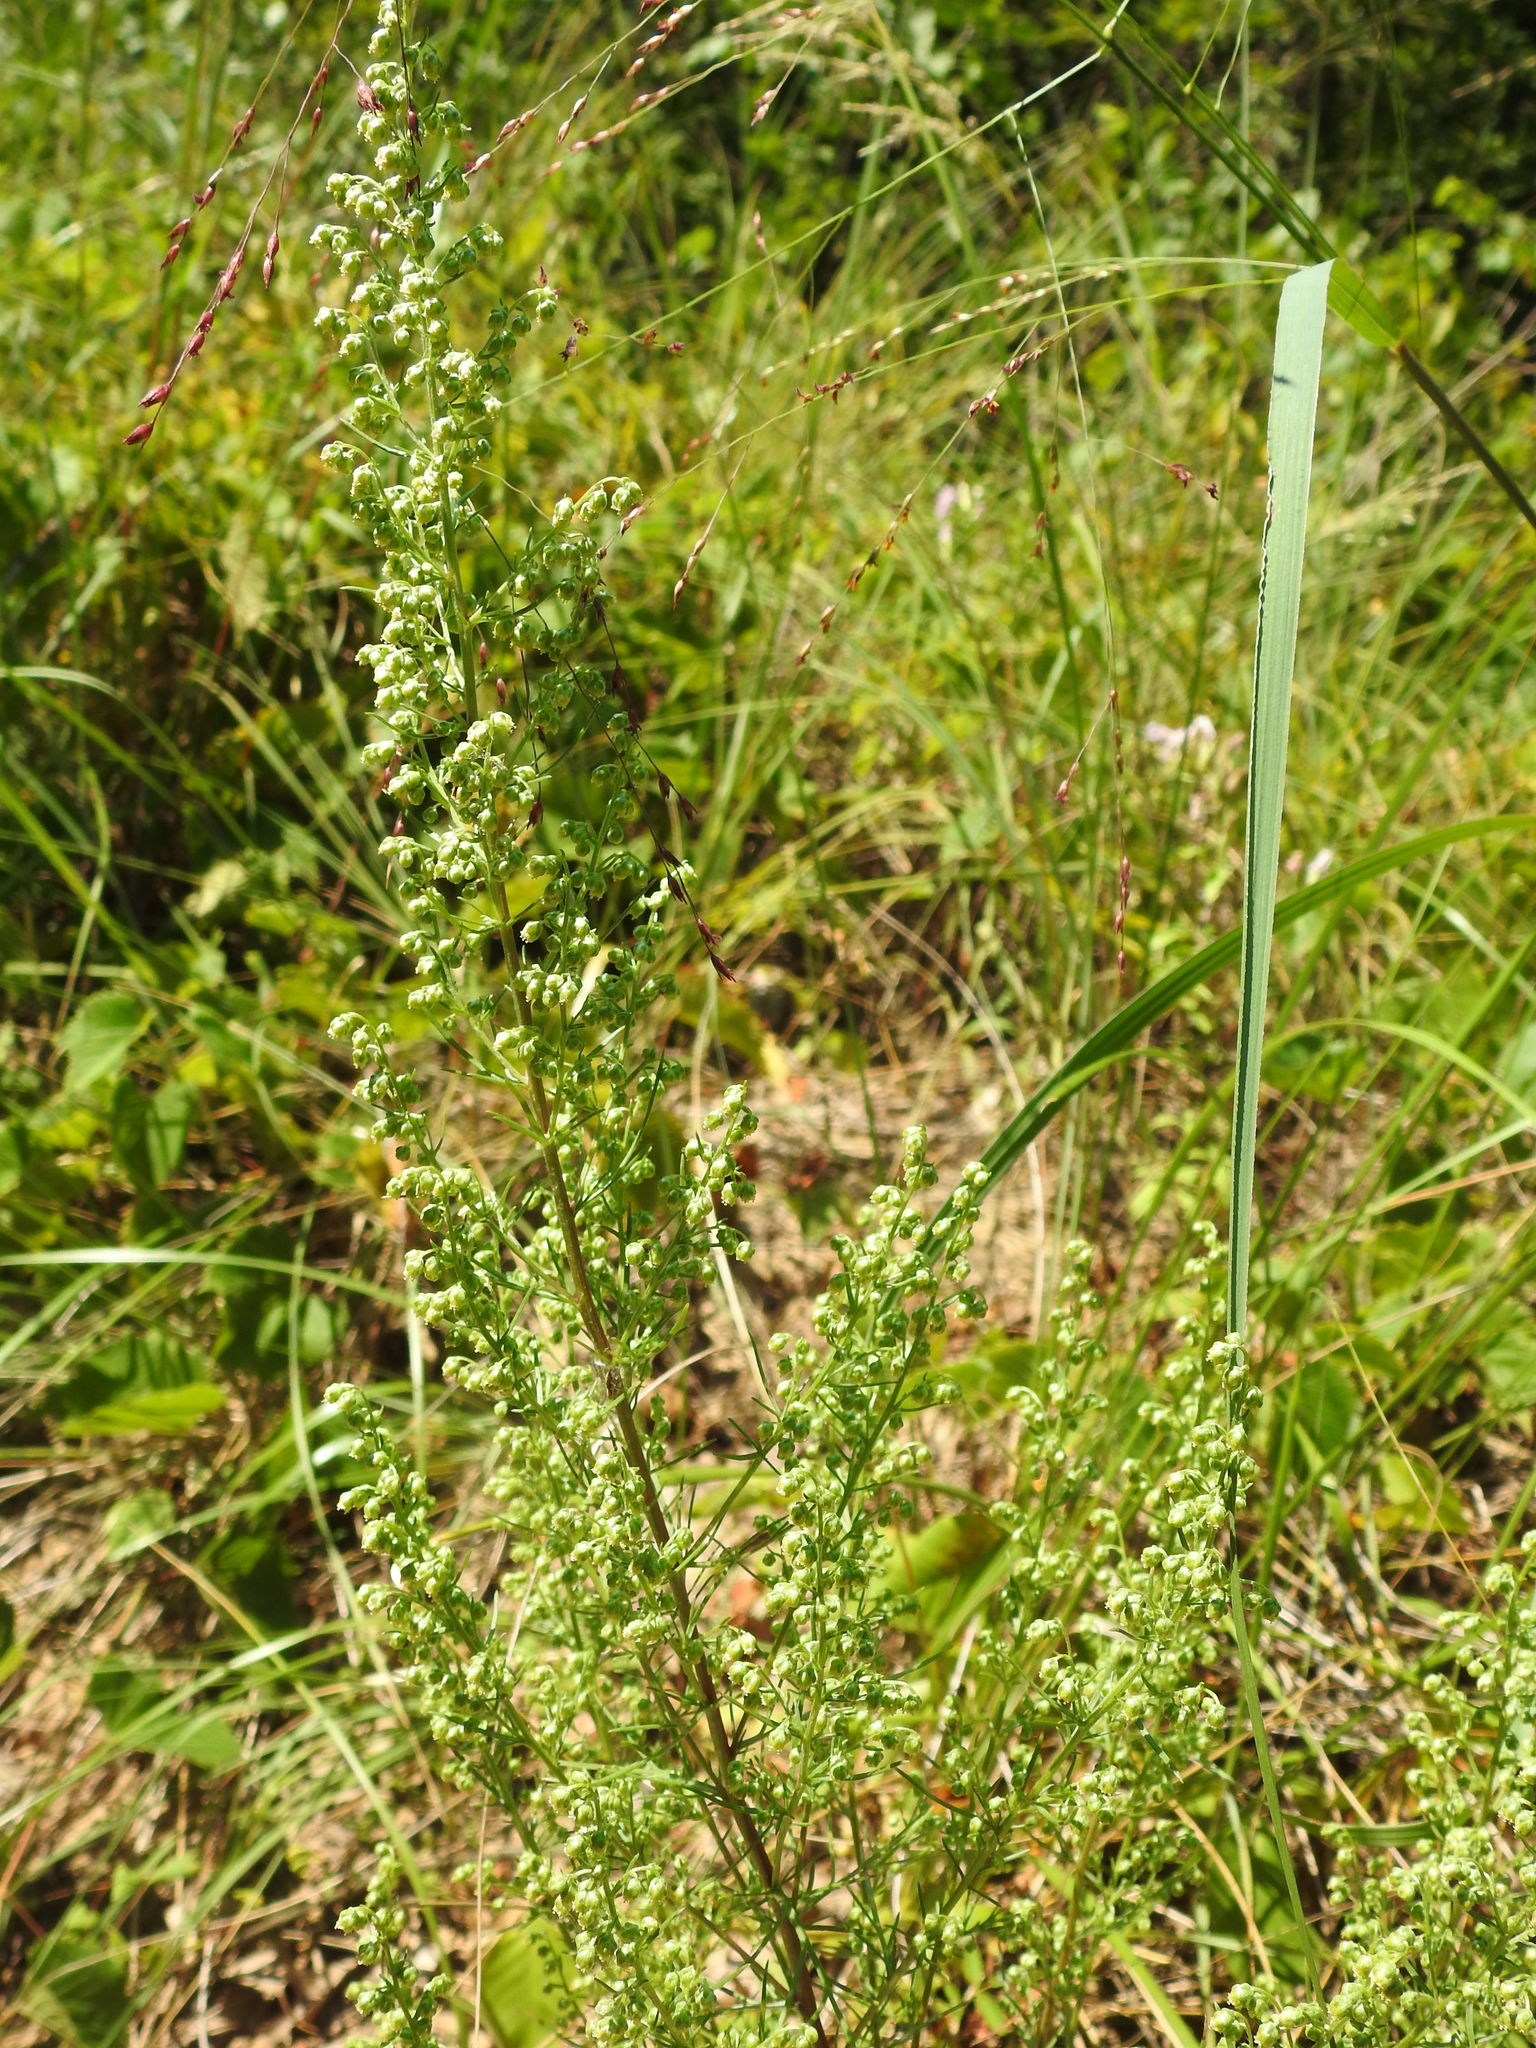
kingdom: Plantae
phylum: Tracheophyta
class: Magnoliopsida
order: Asterales
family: Asteraceae
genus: Artemisia
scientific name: Artemisia campestris
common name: Field wormwood
